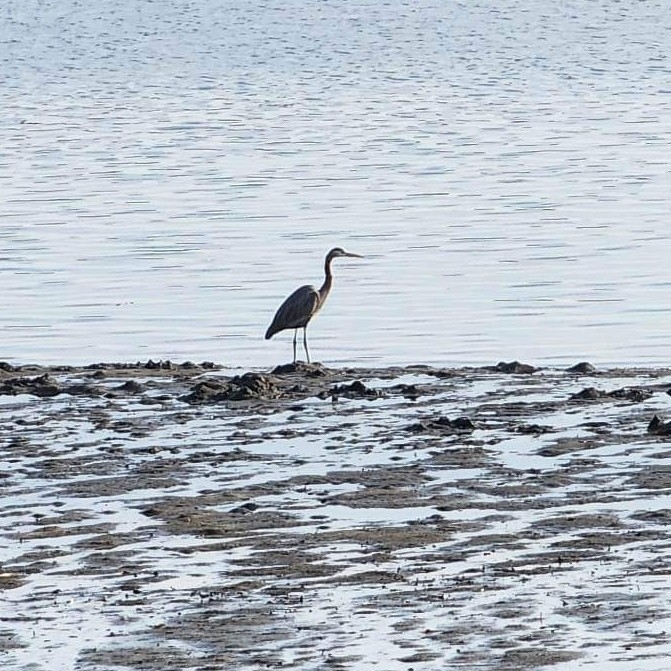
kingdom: Animalia
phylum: Chordata
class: Aves
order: Pelecaniformes
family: Ardeidae
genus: Ardea
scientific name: Ardea herodias
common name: Great blue heron
